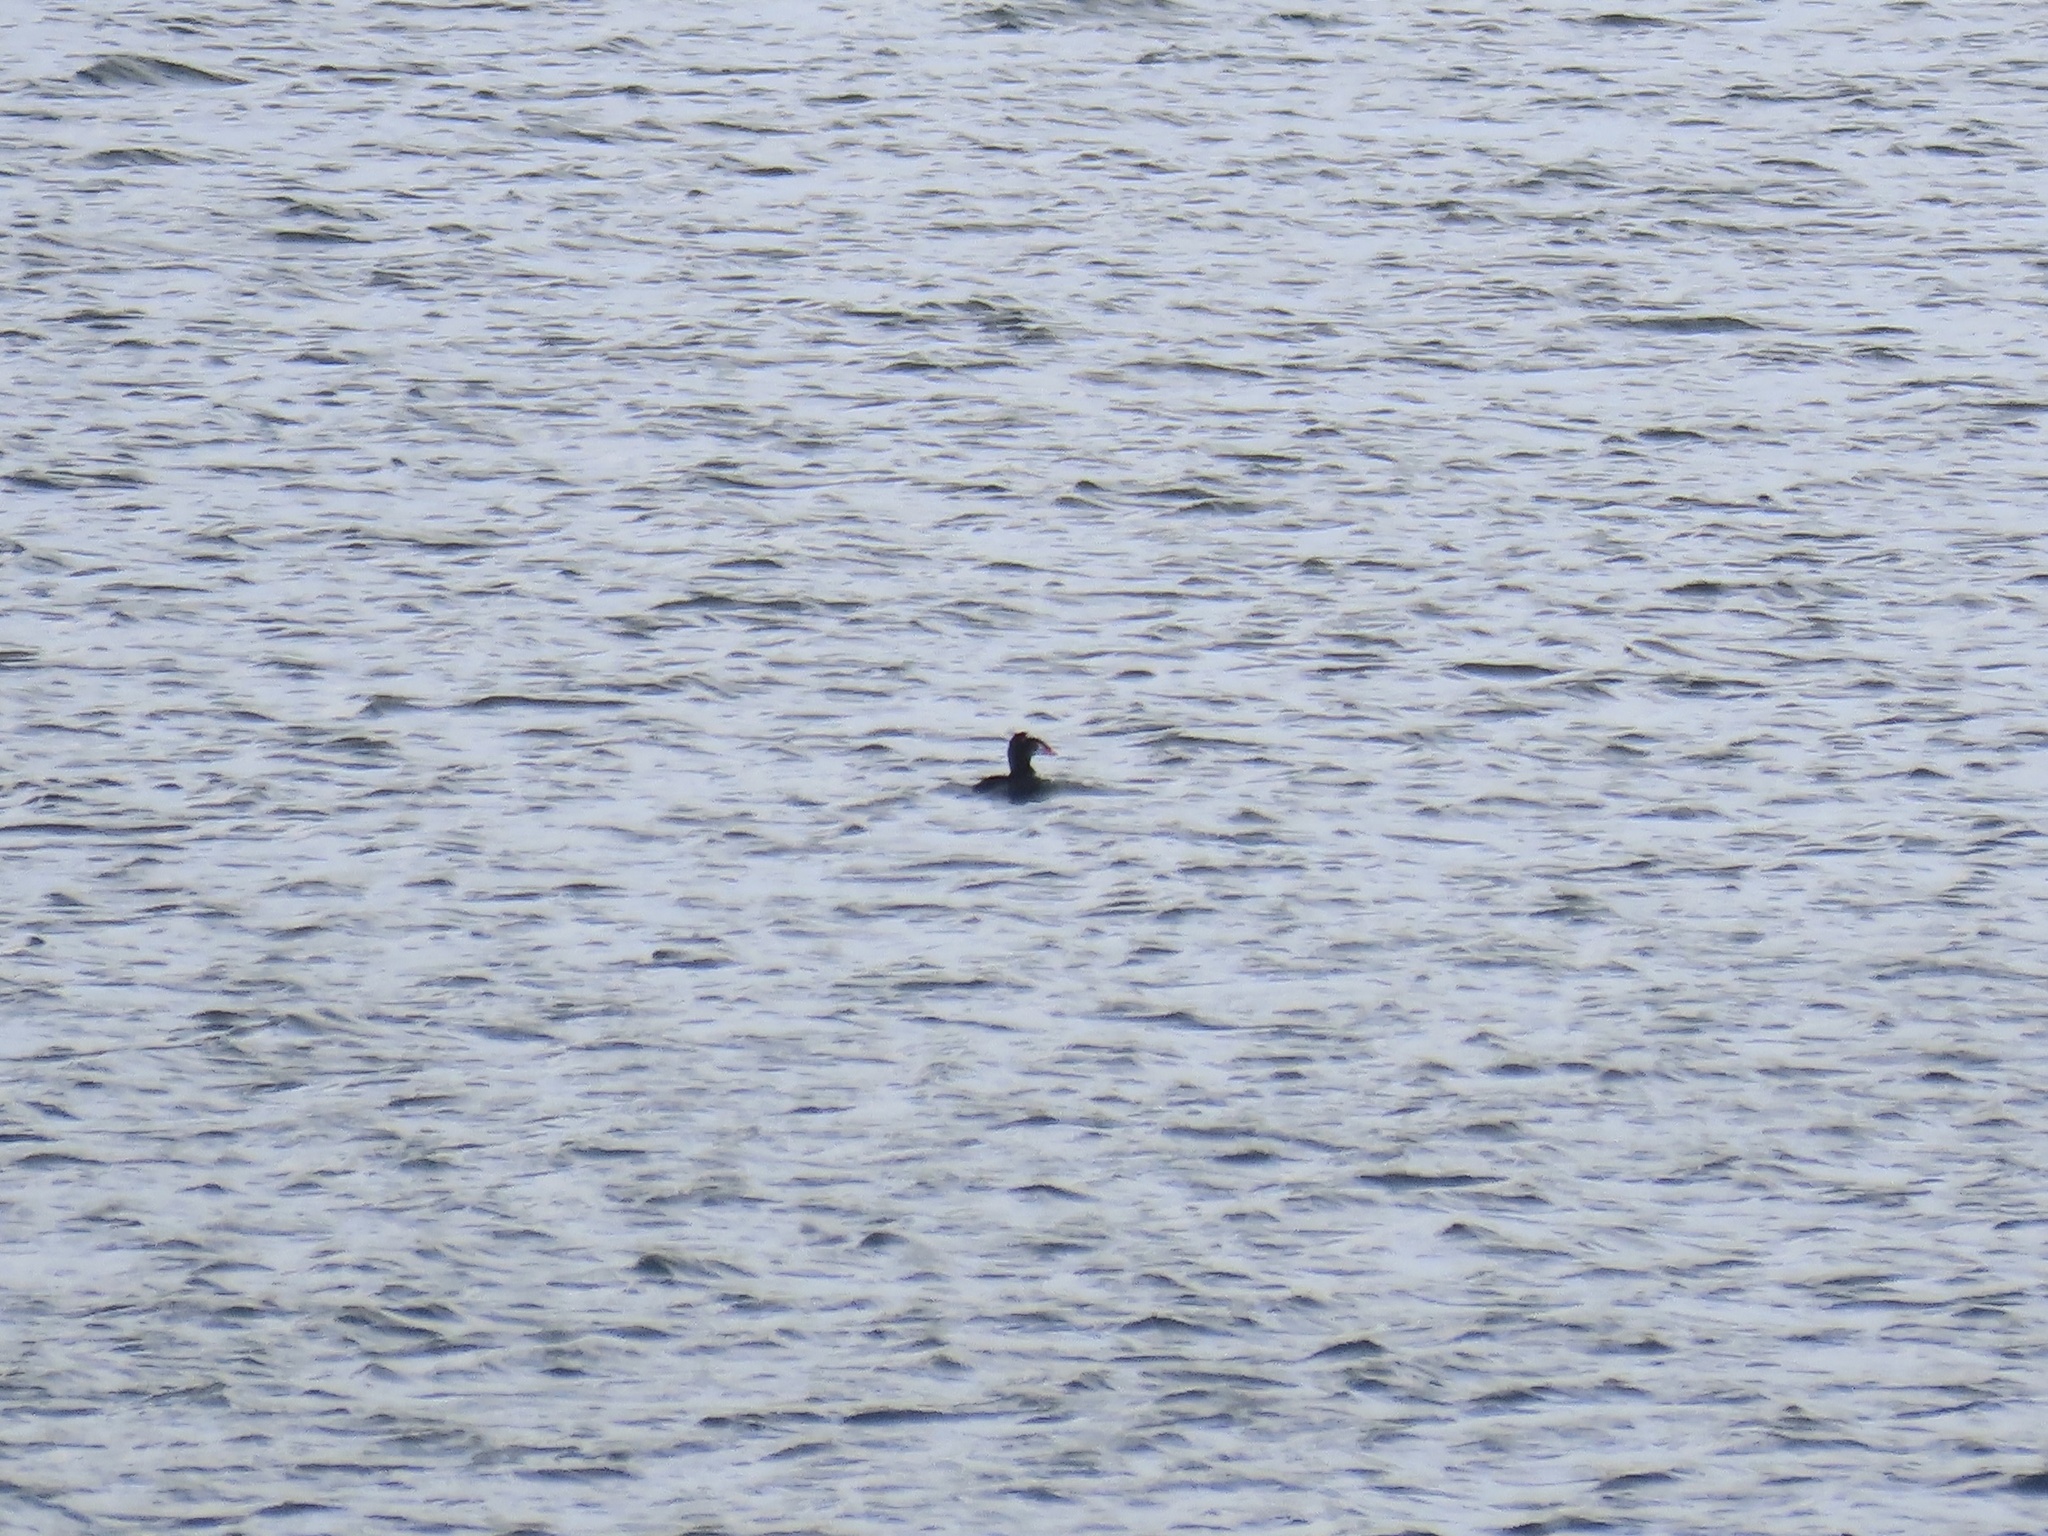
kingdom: Animalia
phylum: Chordata
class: Aves
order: Anseriformes
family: Anatidae
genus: Melanitta
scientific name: Melanitta perspicillata
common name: Surf scoter
